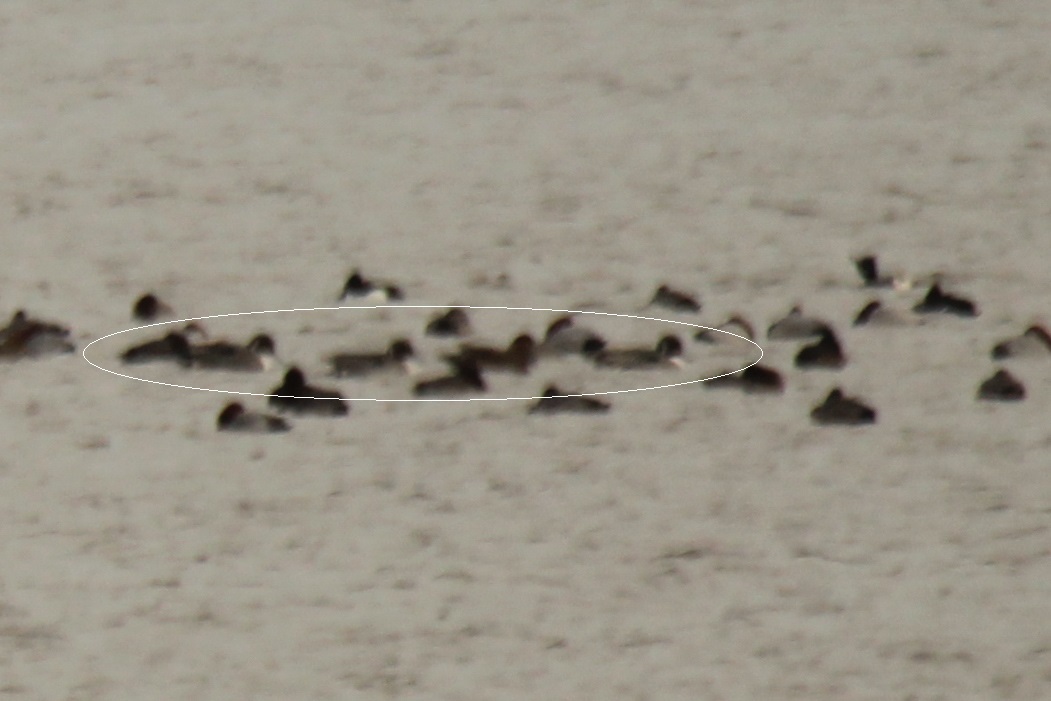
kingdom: Animalia
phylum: Chordata
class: Aves
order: Anseriformes
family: Anatidae
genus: Anas
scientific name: Anas acuta
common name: Northern pintail
